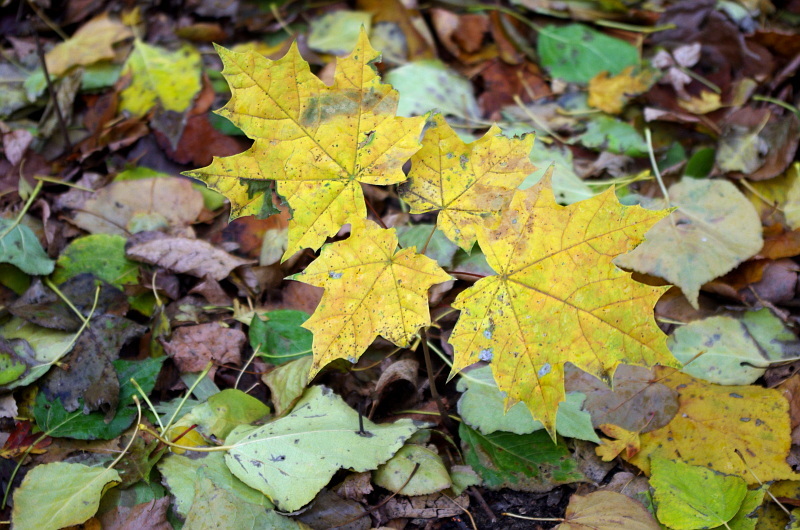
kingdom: Plantae
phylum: Tracheophyta
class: Magnoliopsida
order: Sapindales
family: Sapindaceae
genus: Acer
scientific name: Acer platanoides
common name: Norway maple
